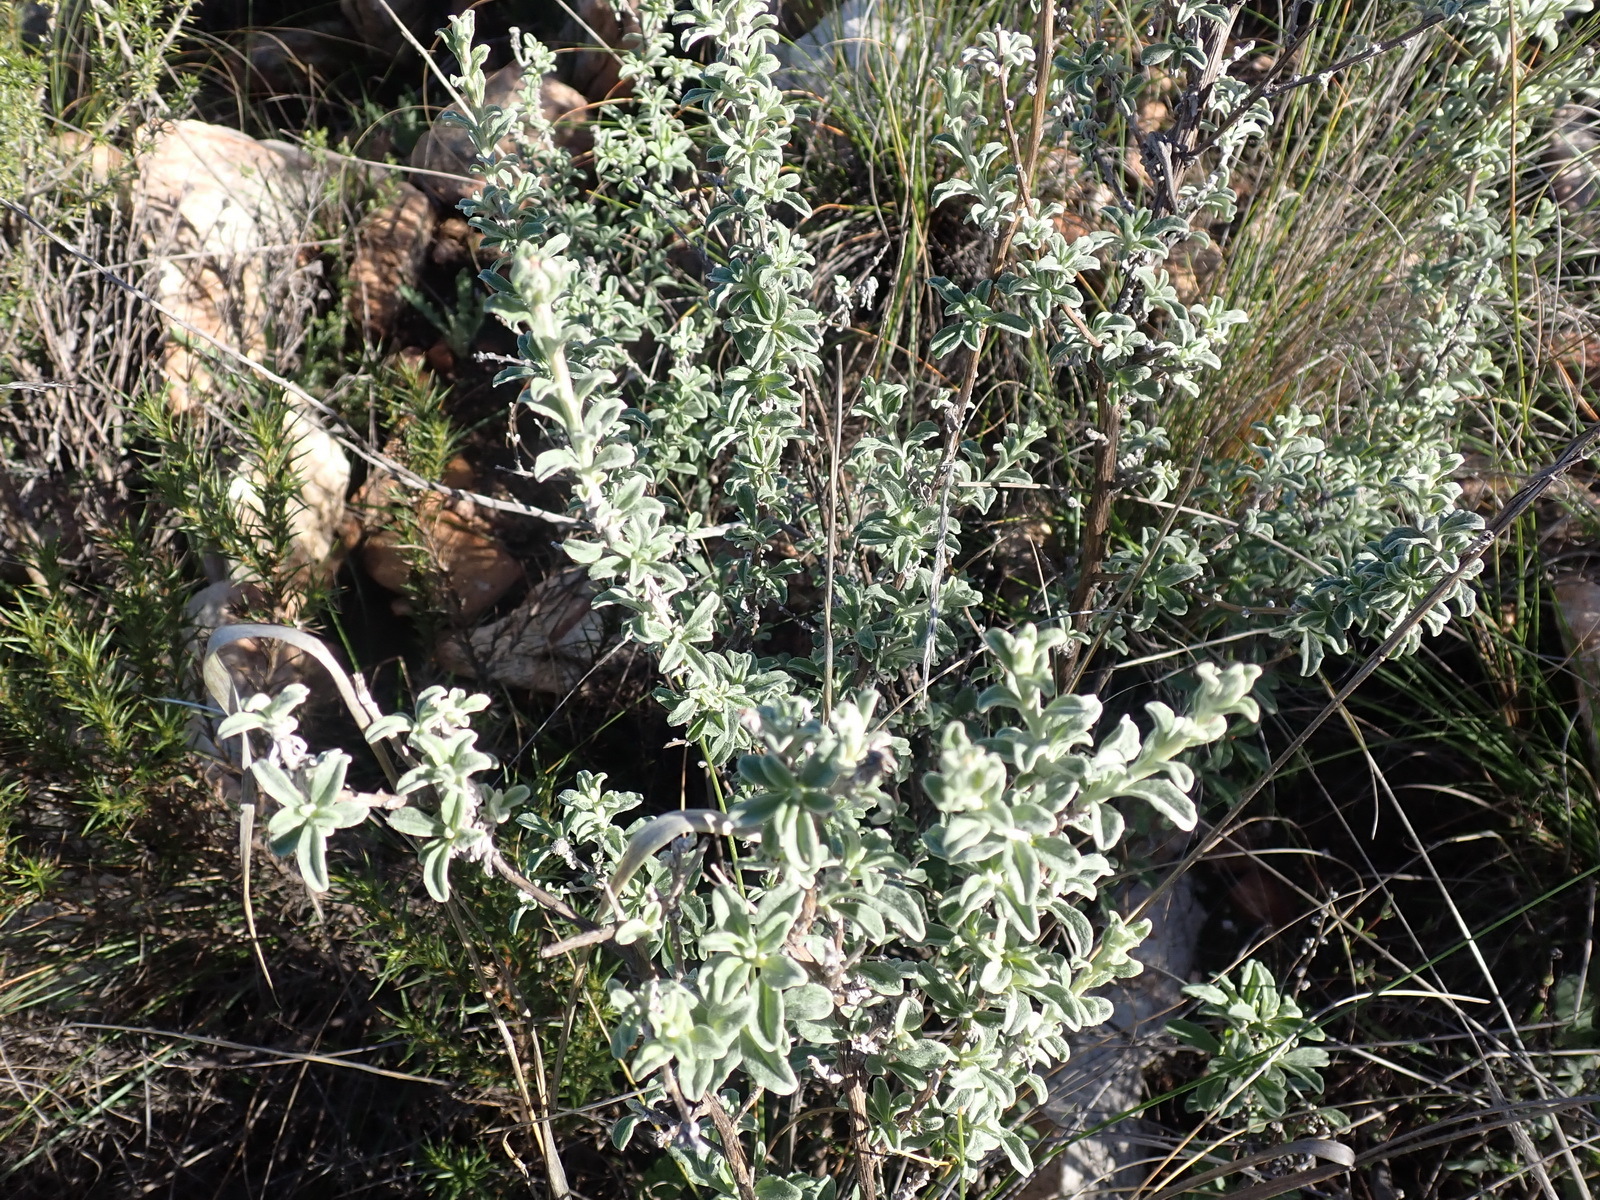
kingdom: Plantae
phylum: Tracheophyta
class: Magnoliopsida
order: Asterales
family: Asteraceae
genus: Printzia
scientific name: Printzia polifolia
